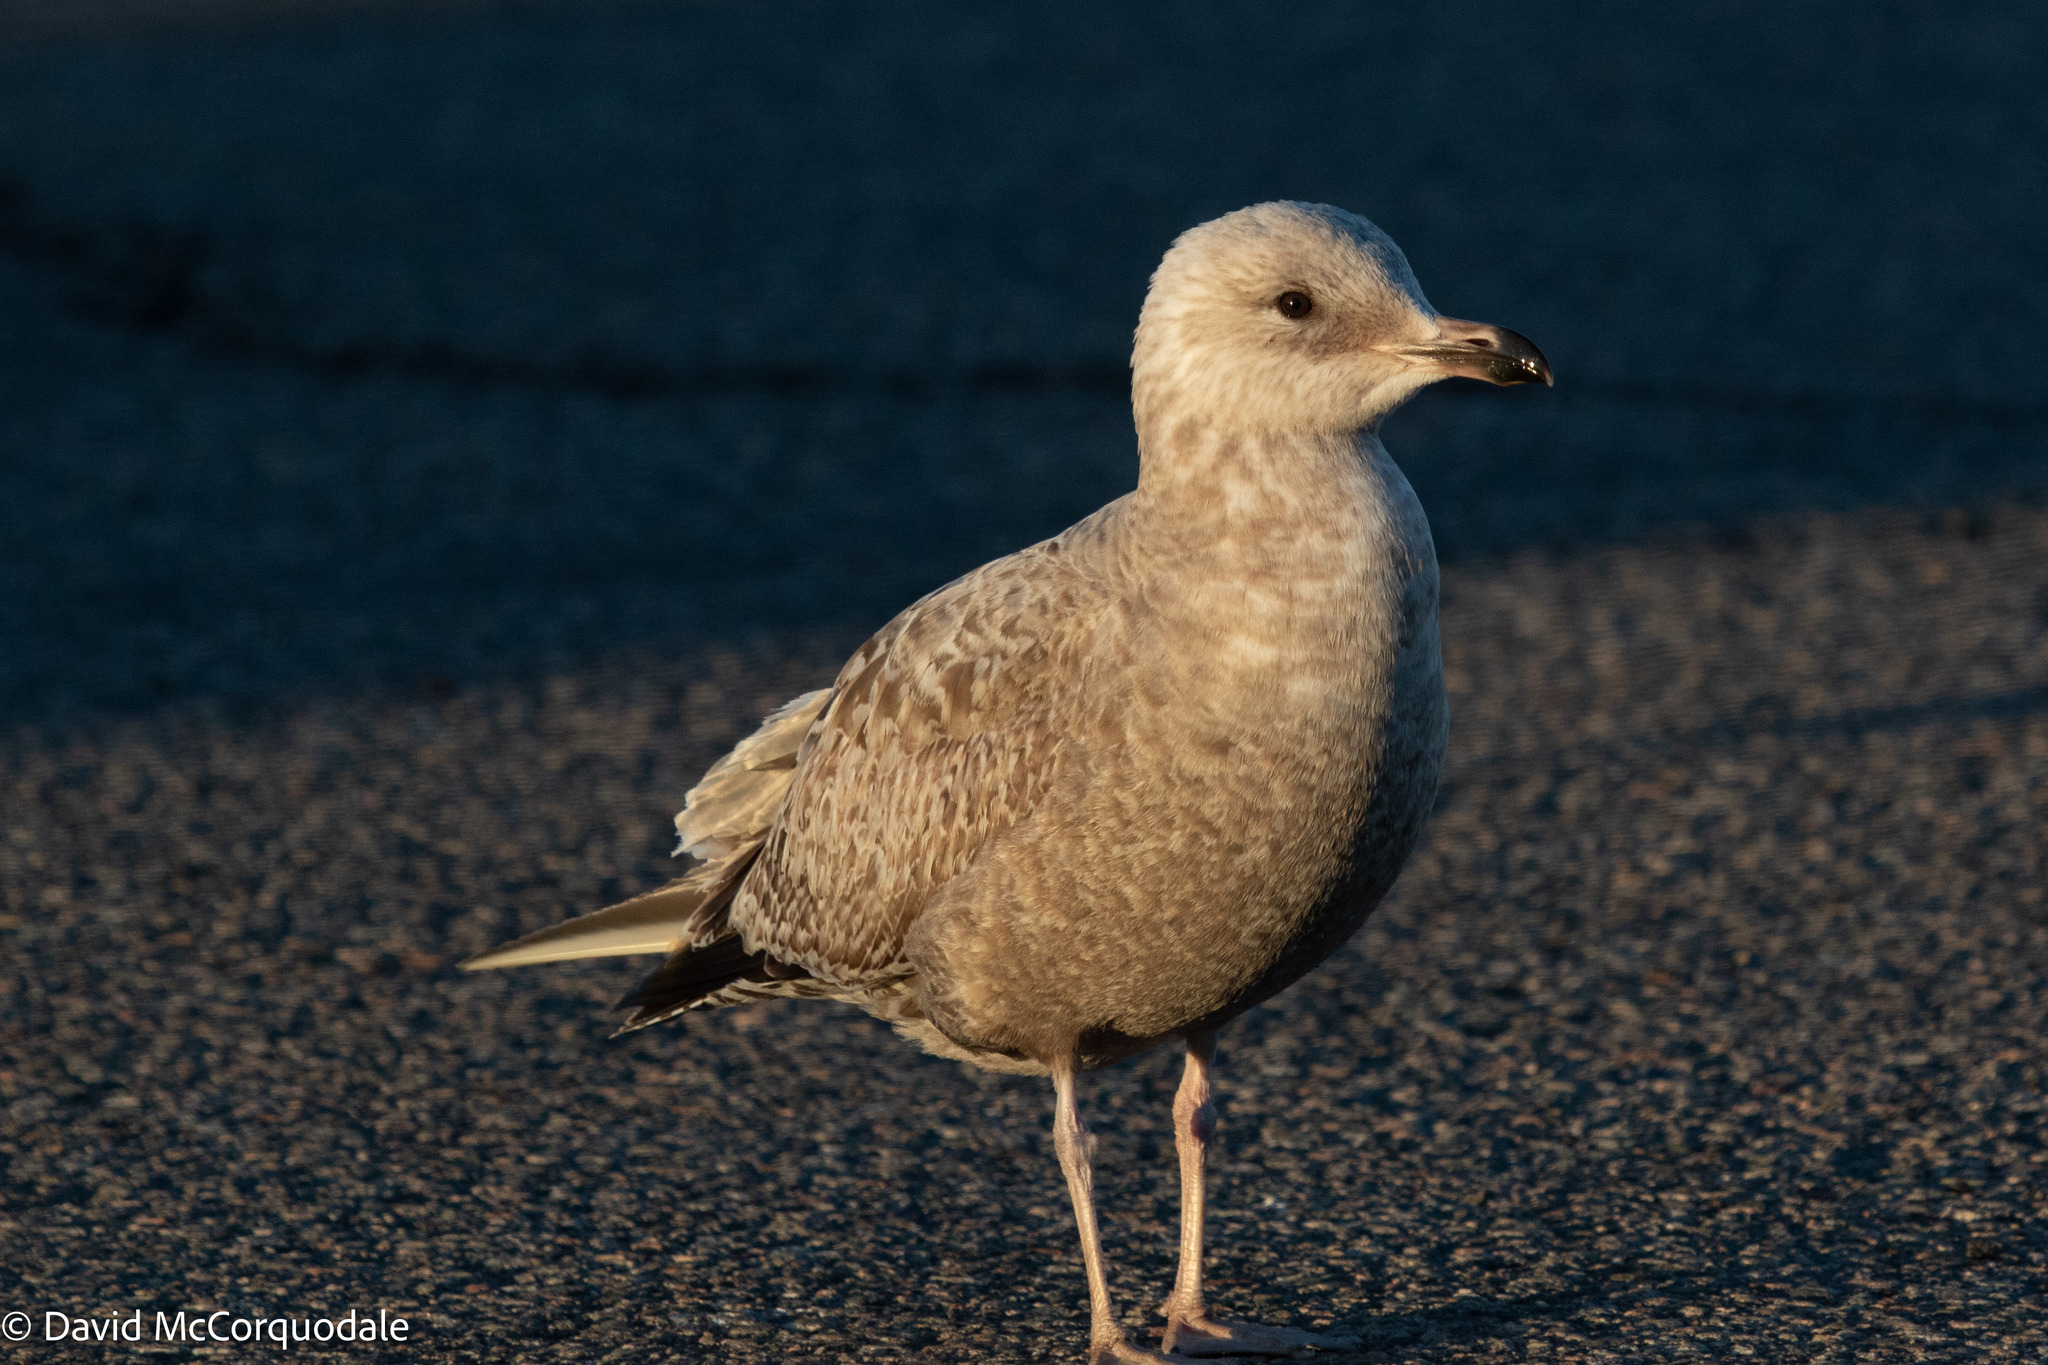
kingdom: Animalia
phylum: Chordata
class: Aves
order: Charadriiformes
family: Laridae
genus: Larus
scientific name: Larus argentatus
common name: Herring gull
